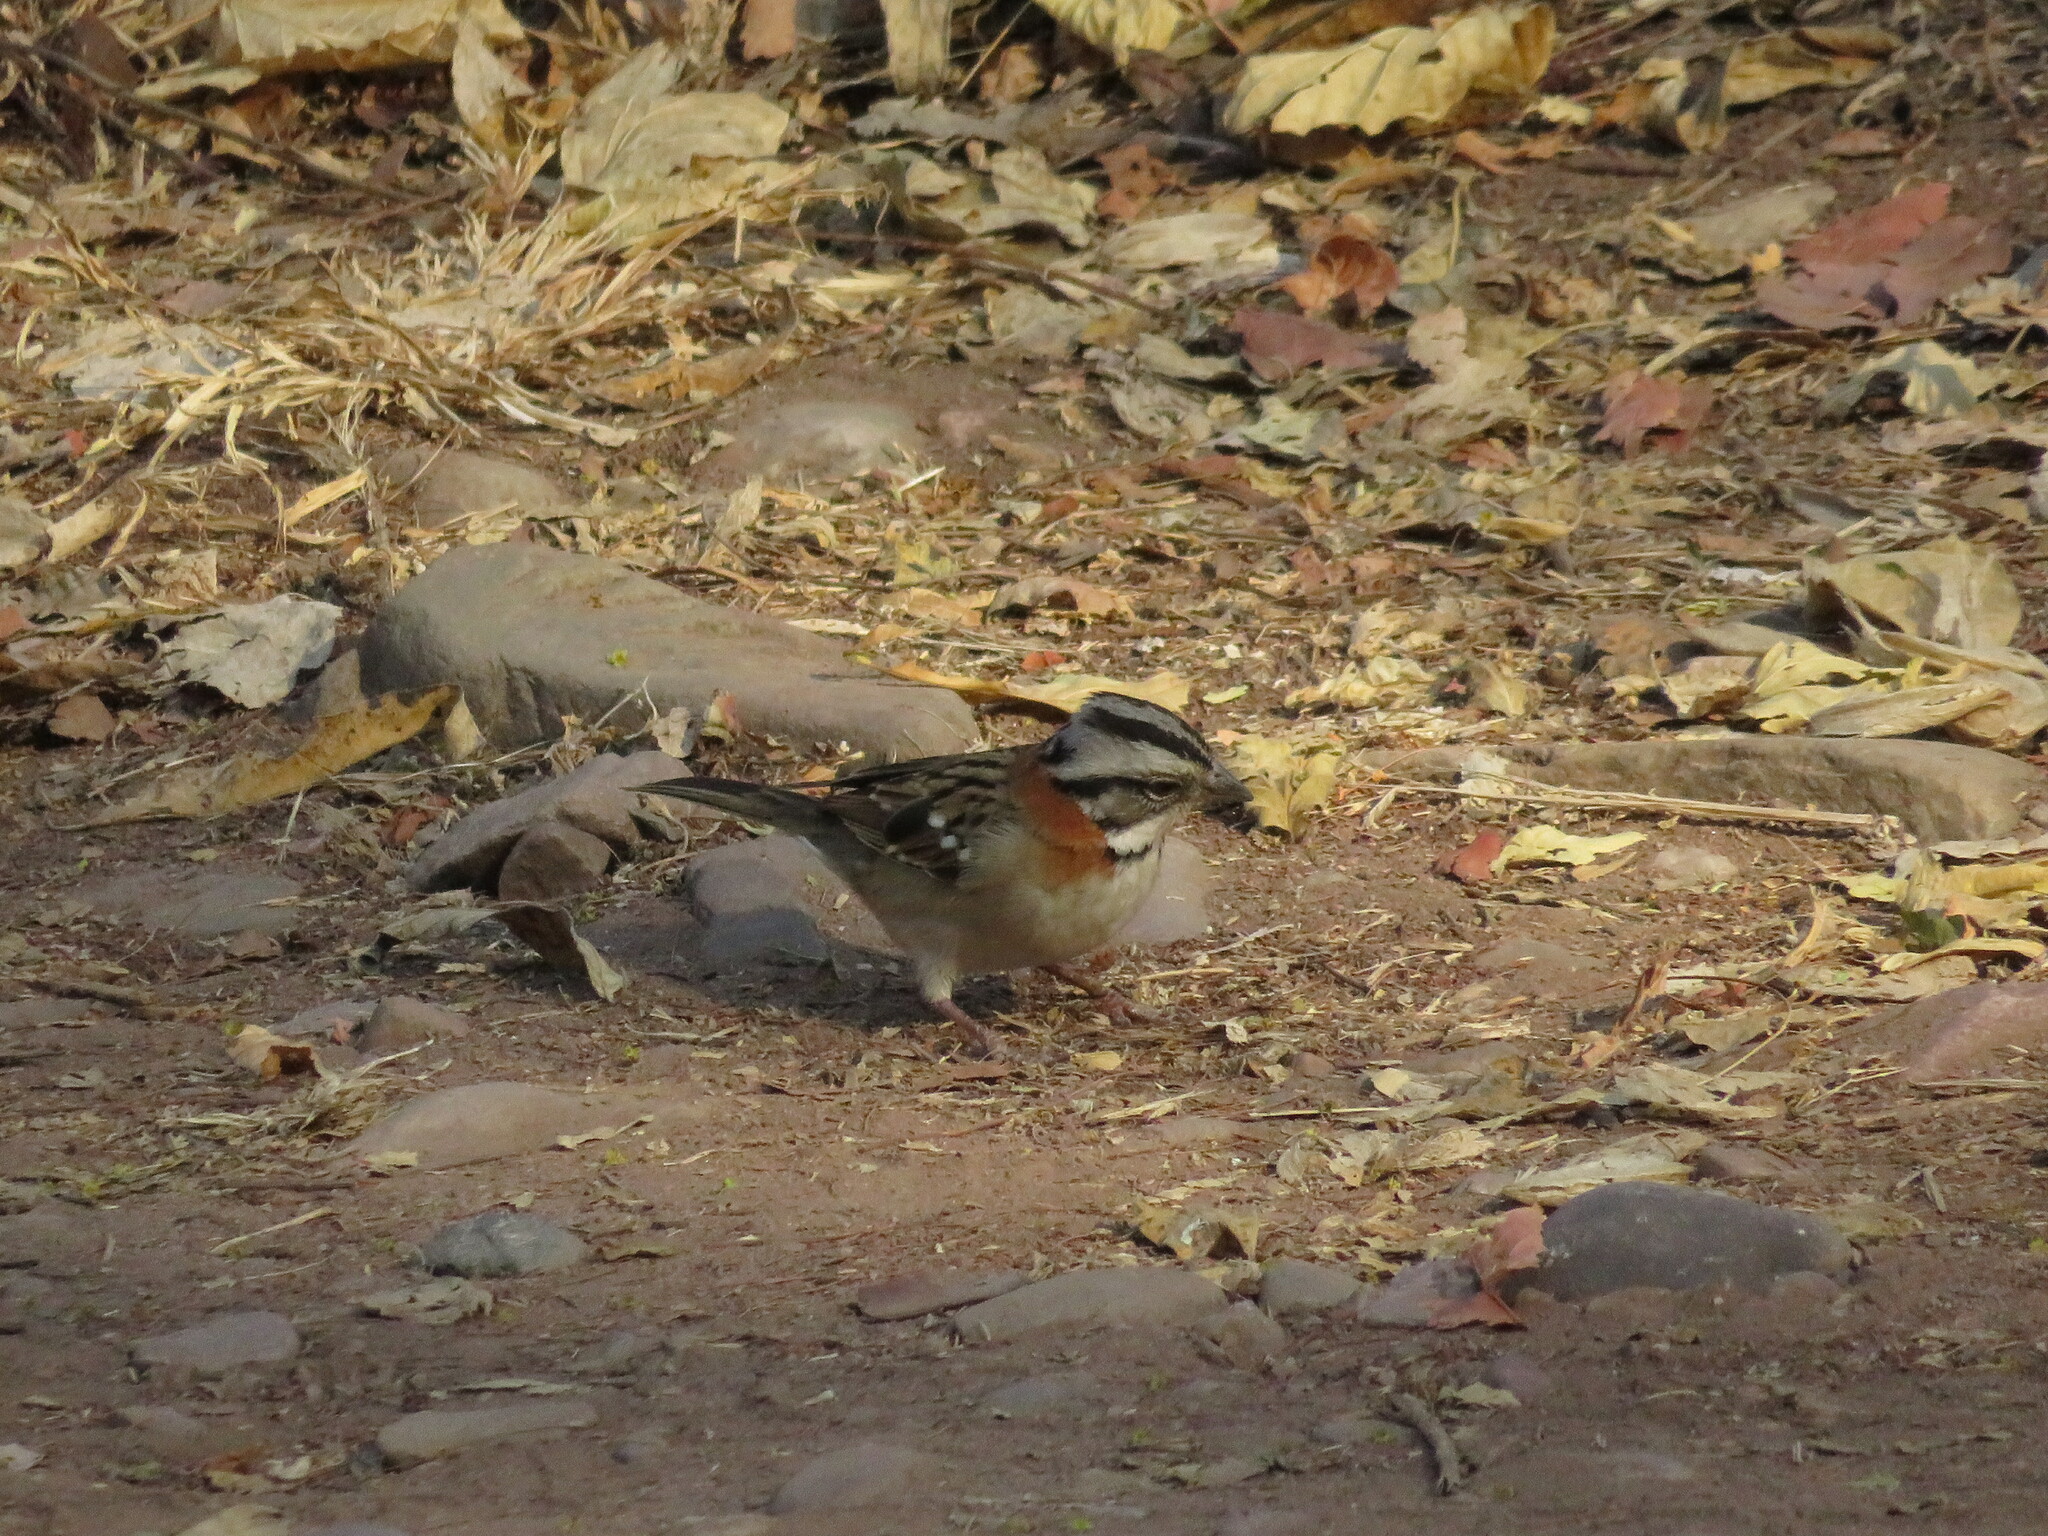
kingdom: Animalia
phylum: Chordata
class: Aves
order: Passeriformes
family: Passerellidae
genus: Zonotrichia
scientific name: Zonotrichia capensis
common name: Rufous-collared sparrow
